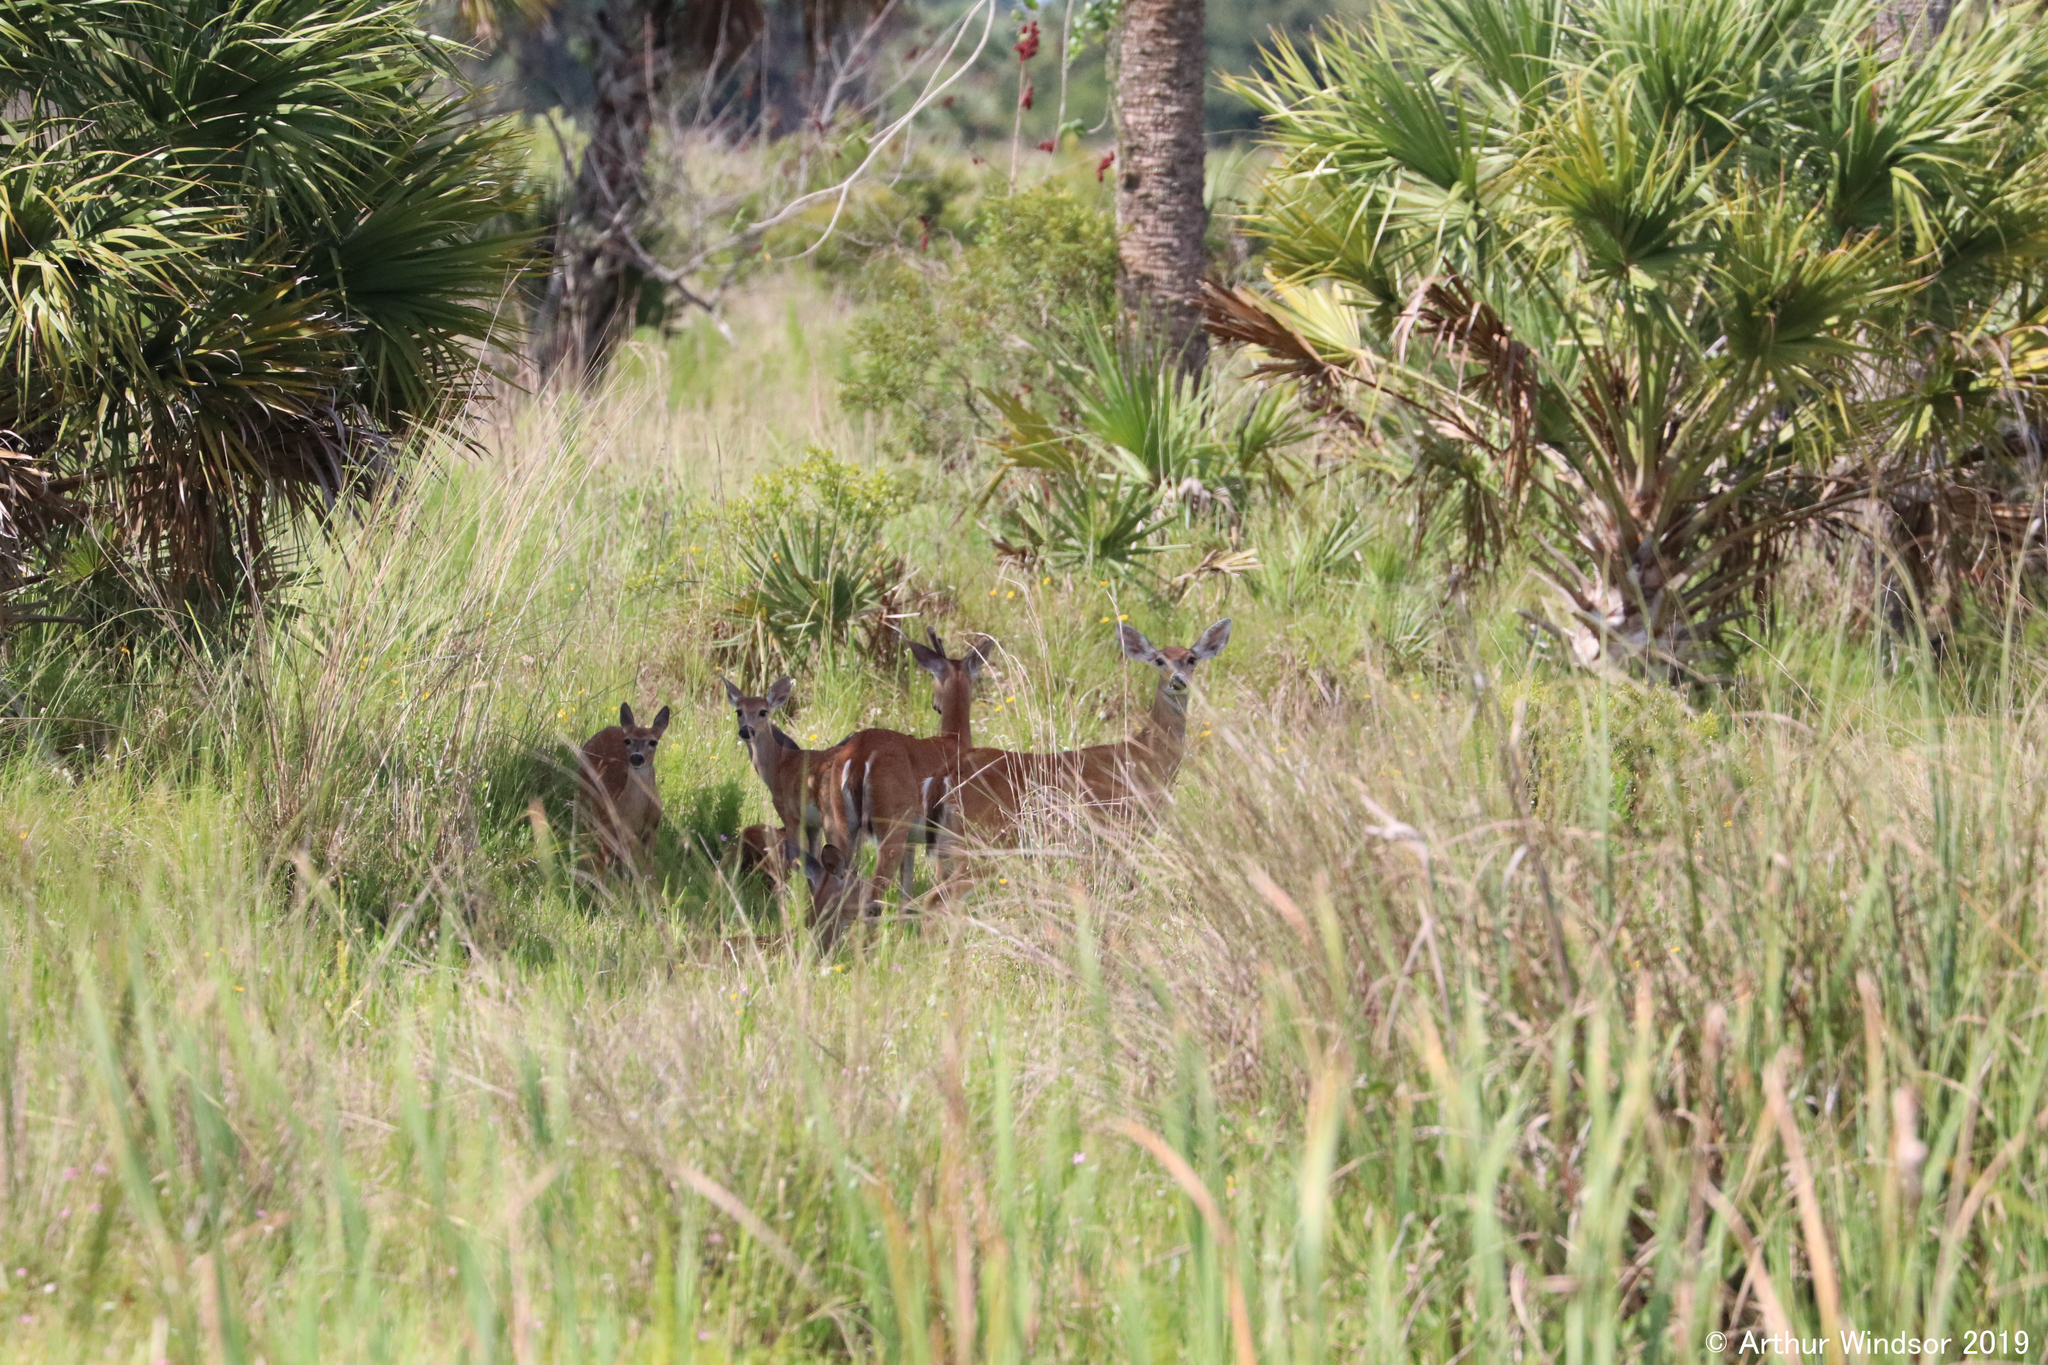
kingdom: Animalia
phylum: Chordata
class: Mammalia
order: Artiodactyla
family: Cervidae
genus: Odocoileus
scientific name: Odocoileus virginianus
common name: White-tailed deer
